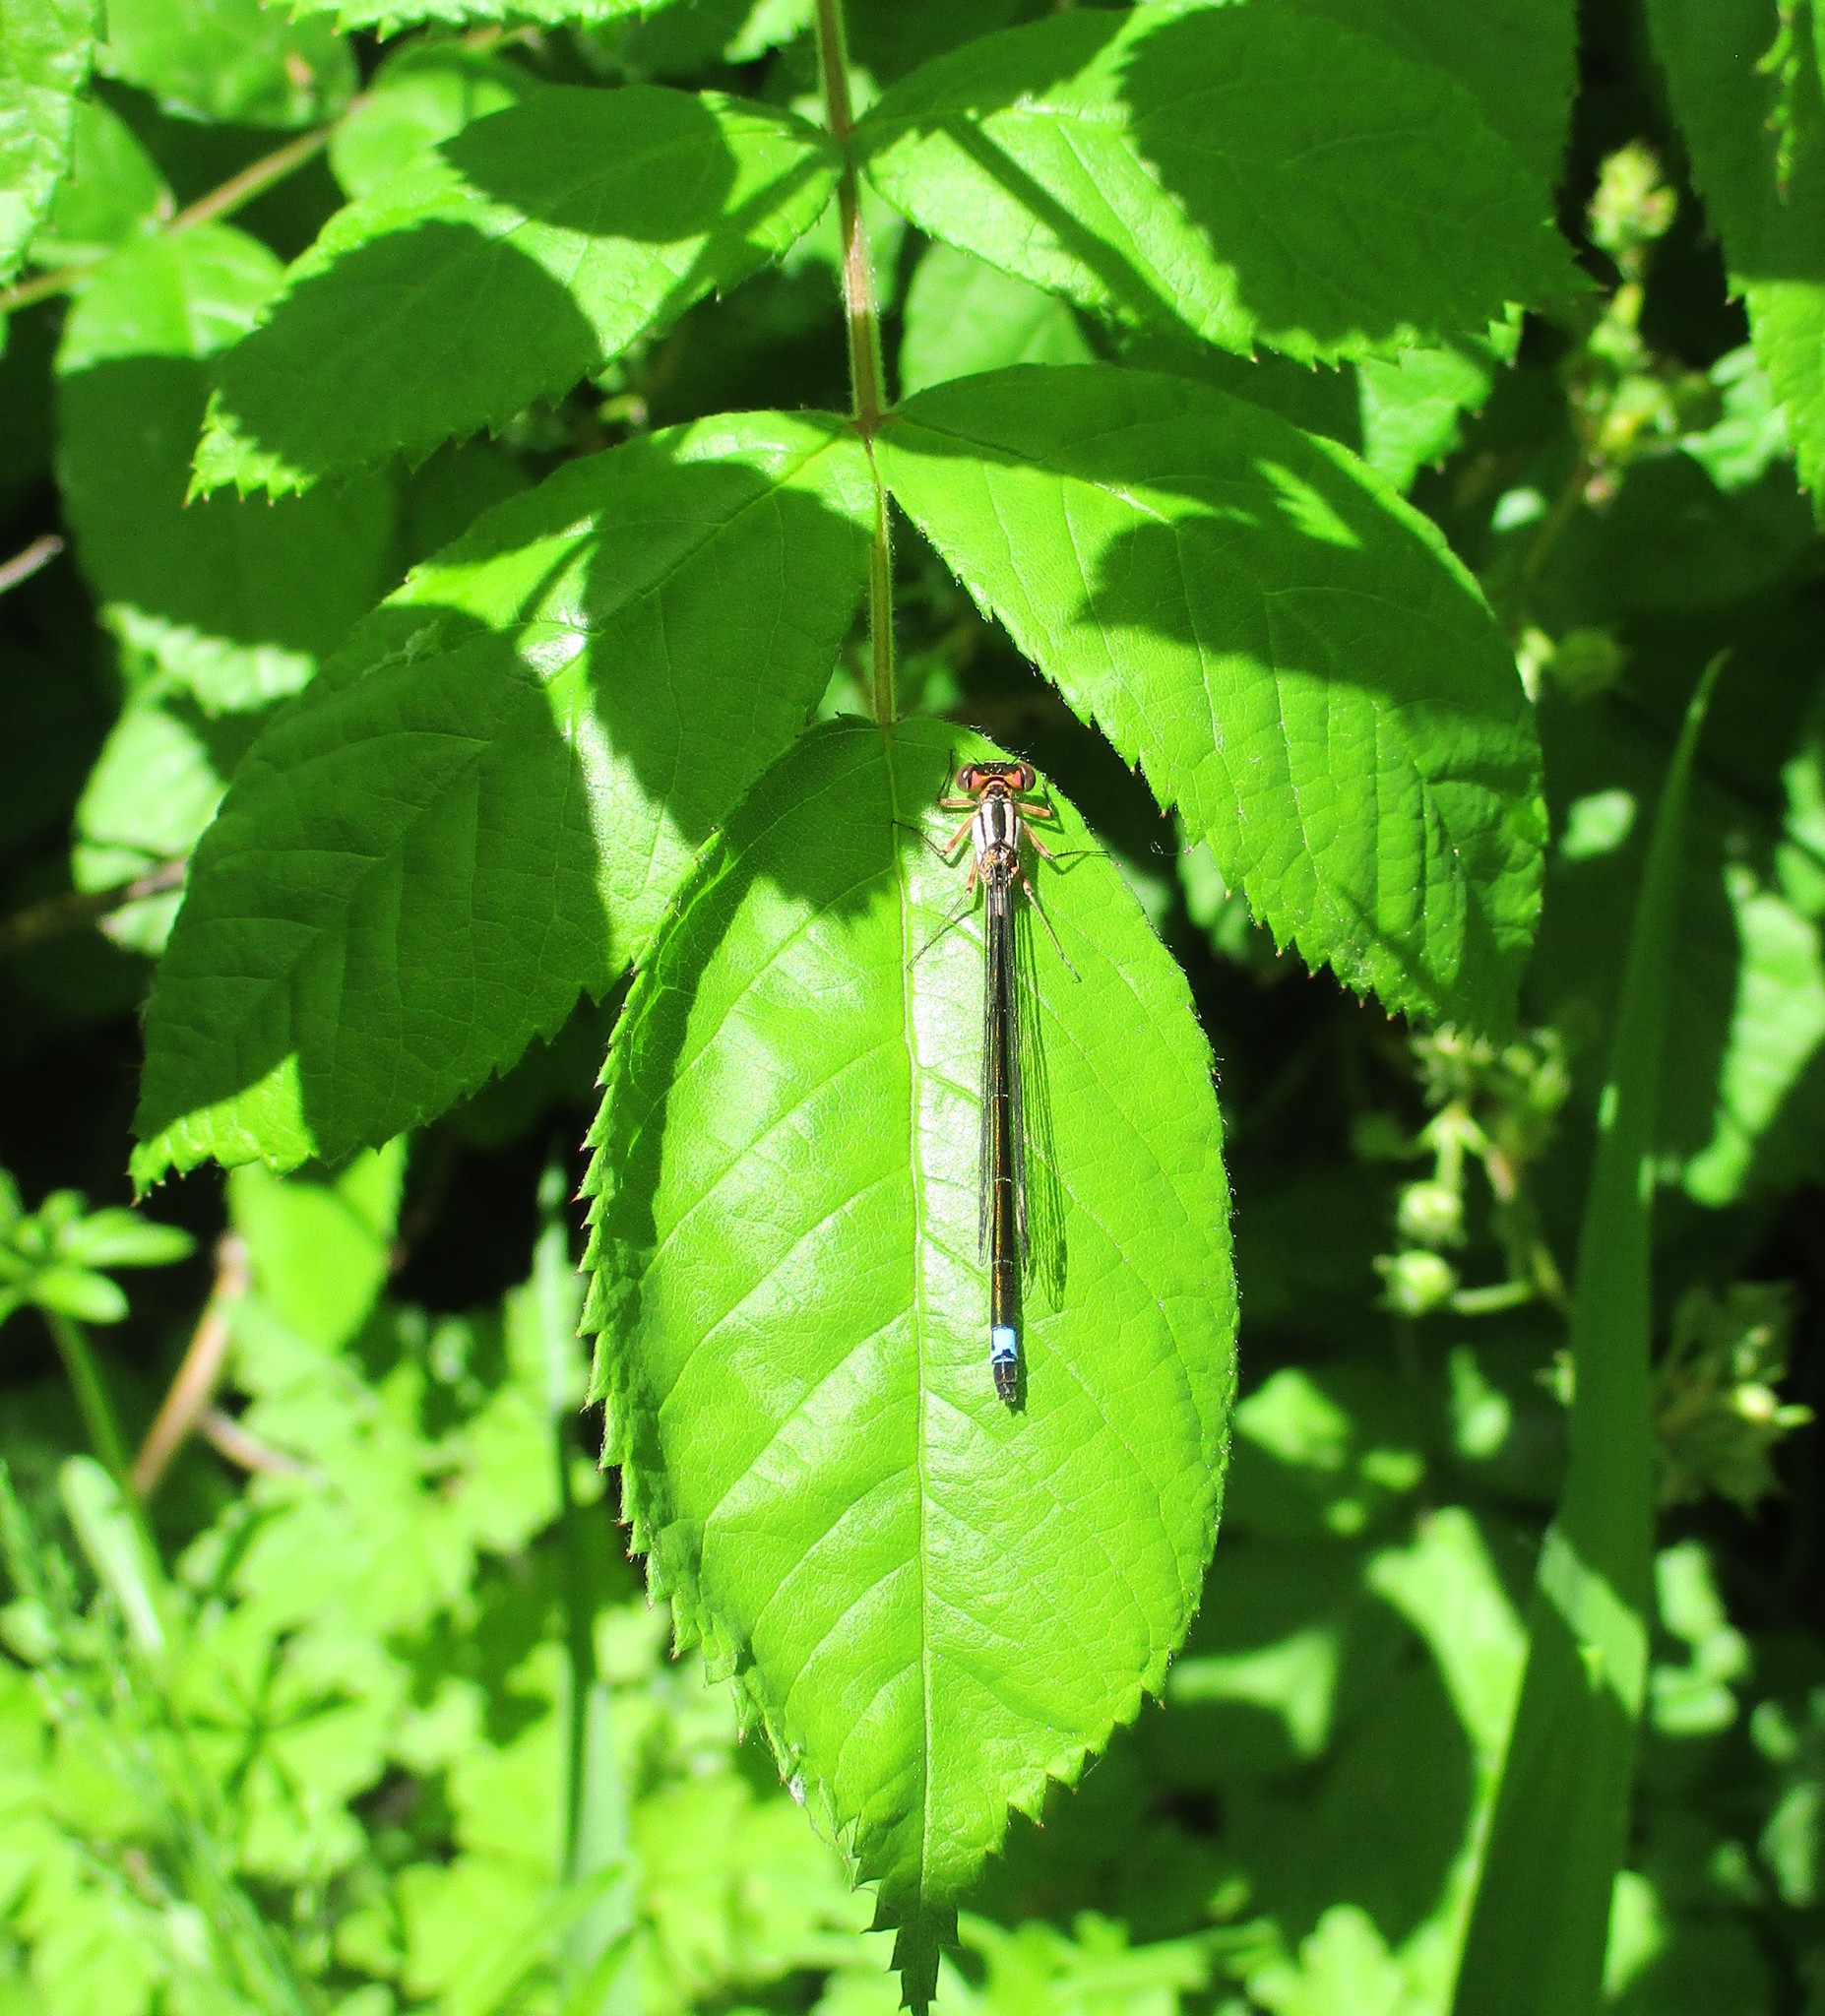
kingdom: Animalia
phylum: Arthropoda
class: Insecta
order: Odonata
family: Coenagrionidae
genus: Ischnura
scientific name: Ischnura cervula
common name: Pacific forktail
